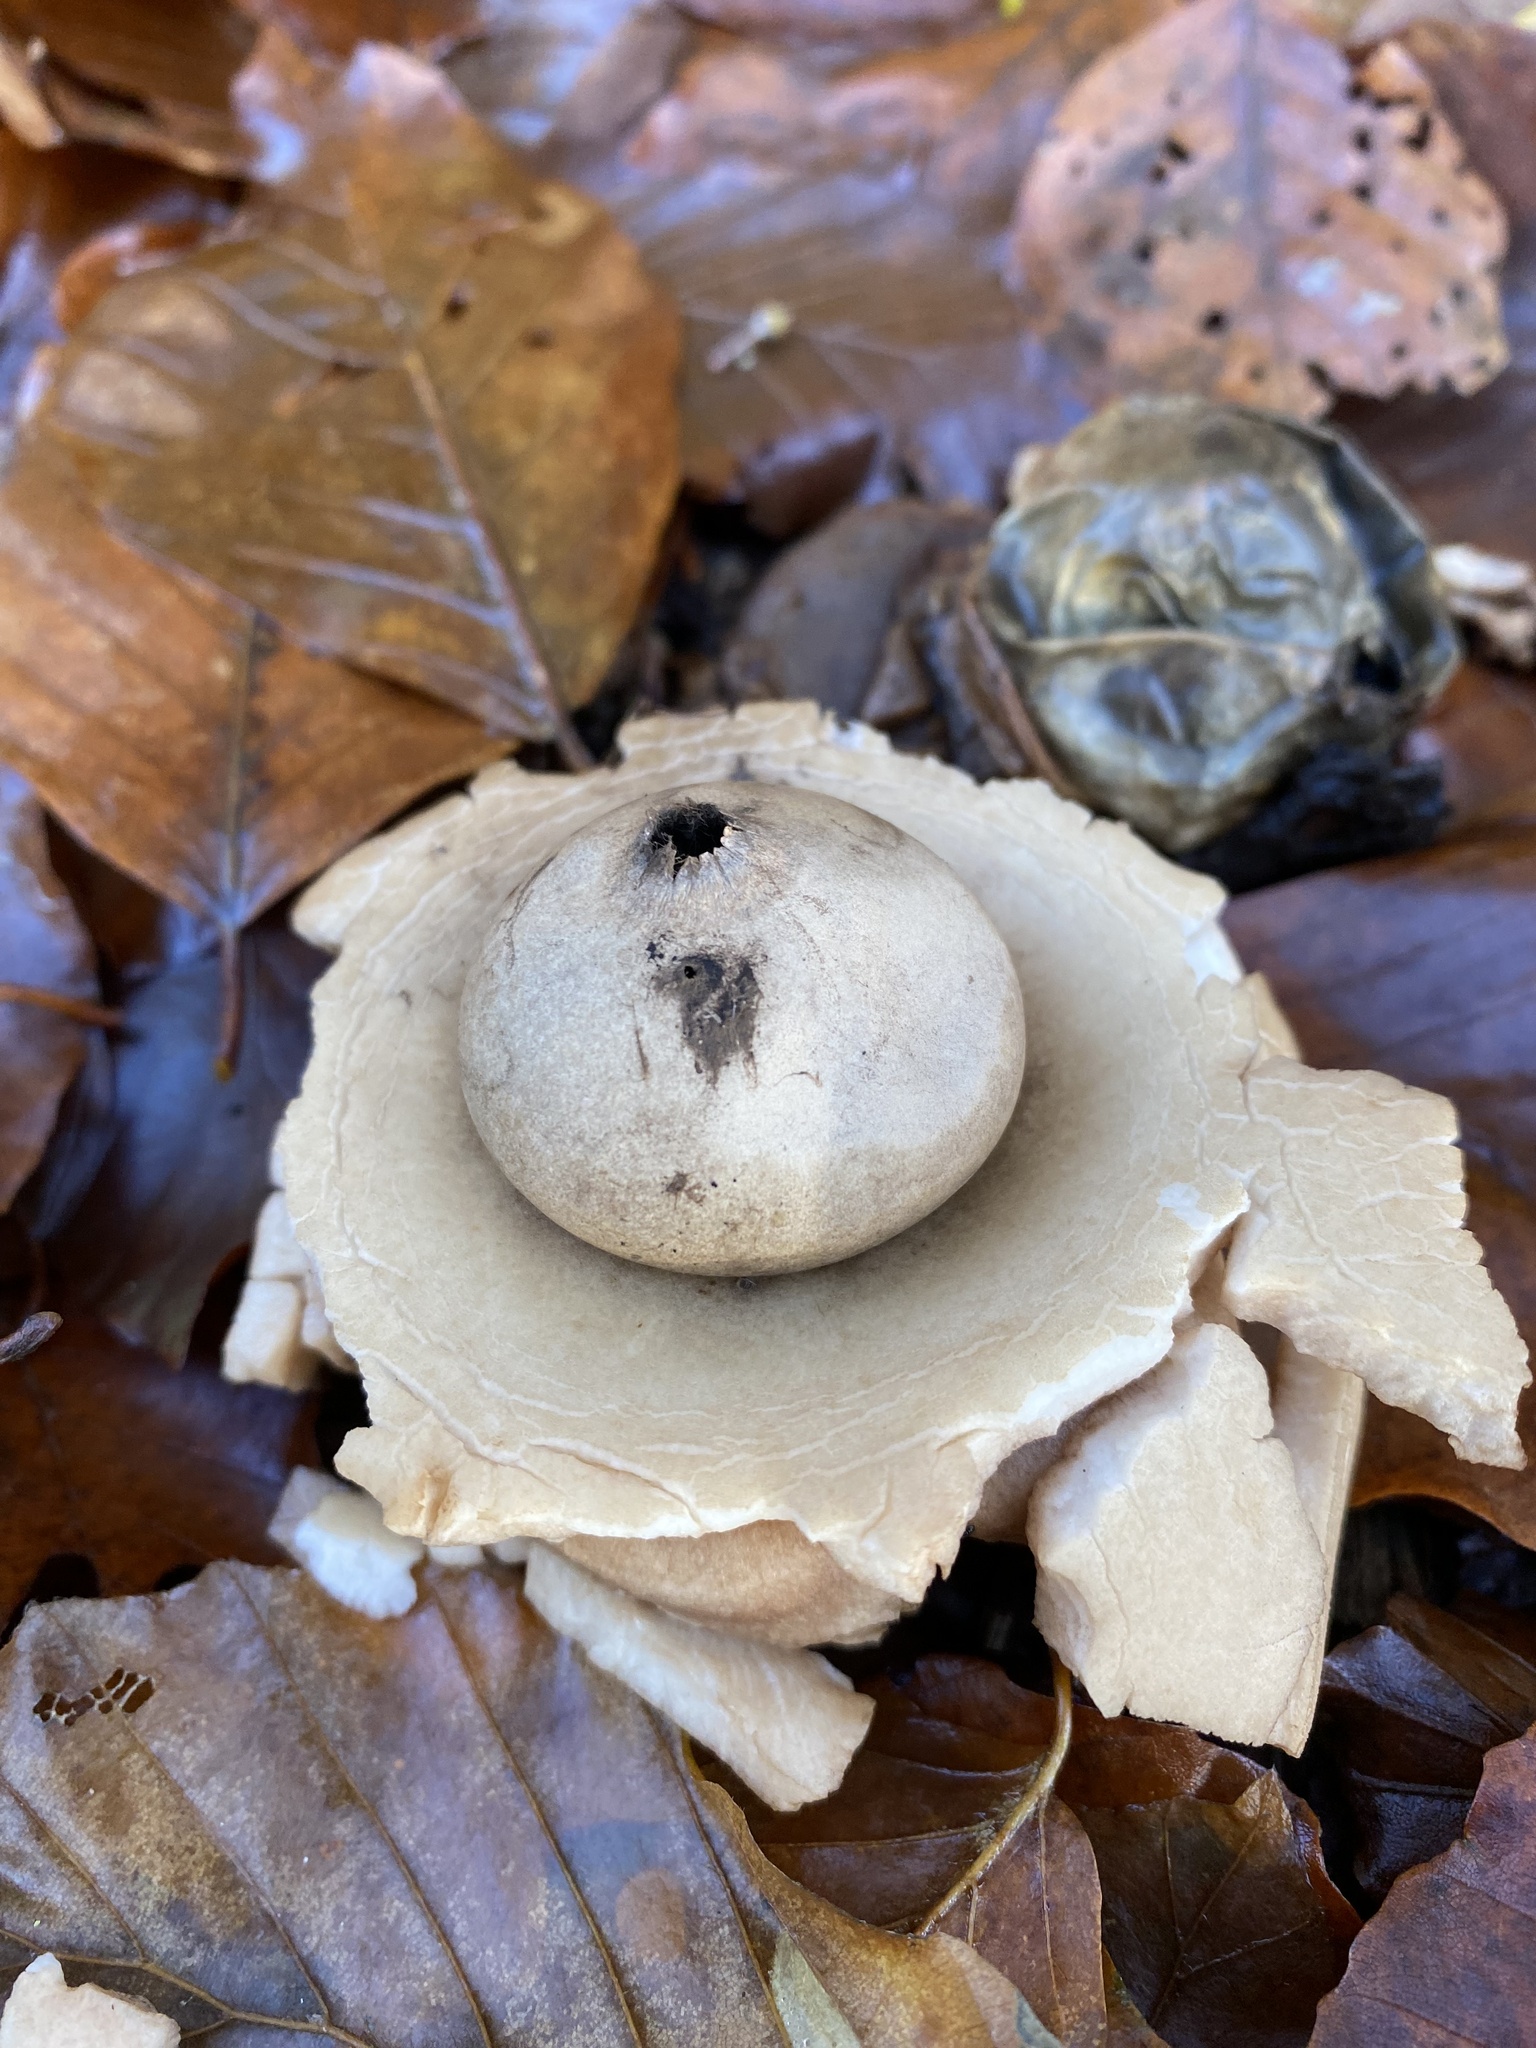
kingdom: Fungi
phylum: Basidiomycota
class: Agaricomycetes
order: Geastrales
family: Geastraceae
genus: Geastrum
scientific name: Geastrum triplex
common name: Collared earthstar
